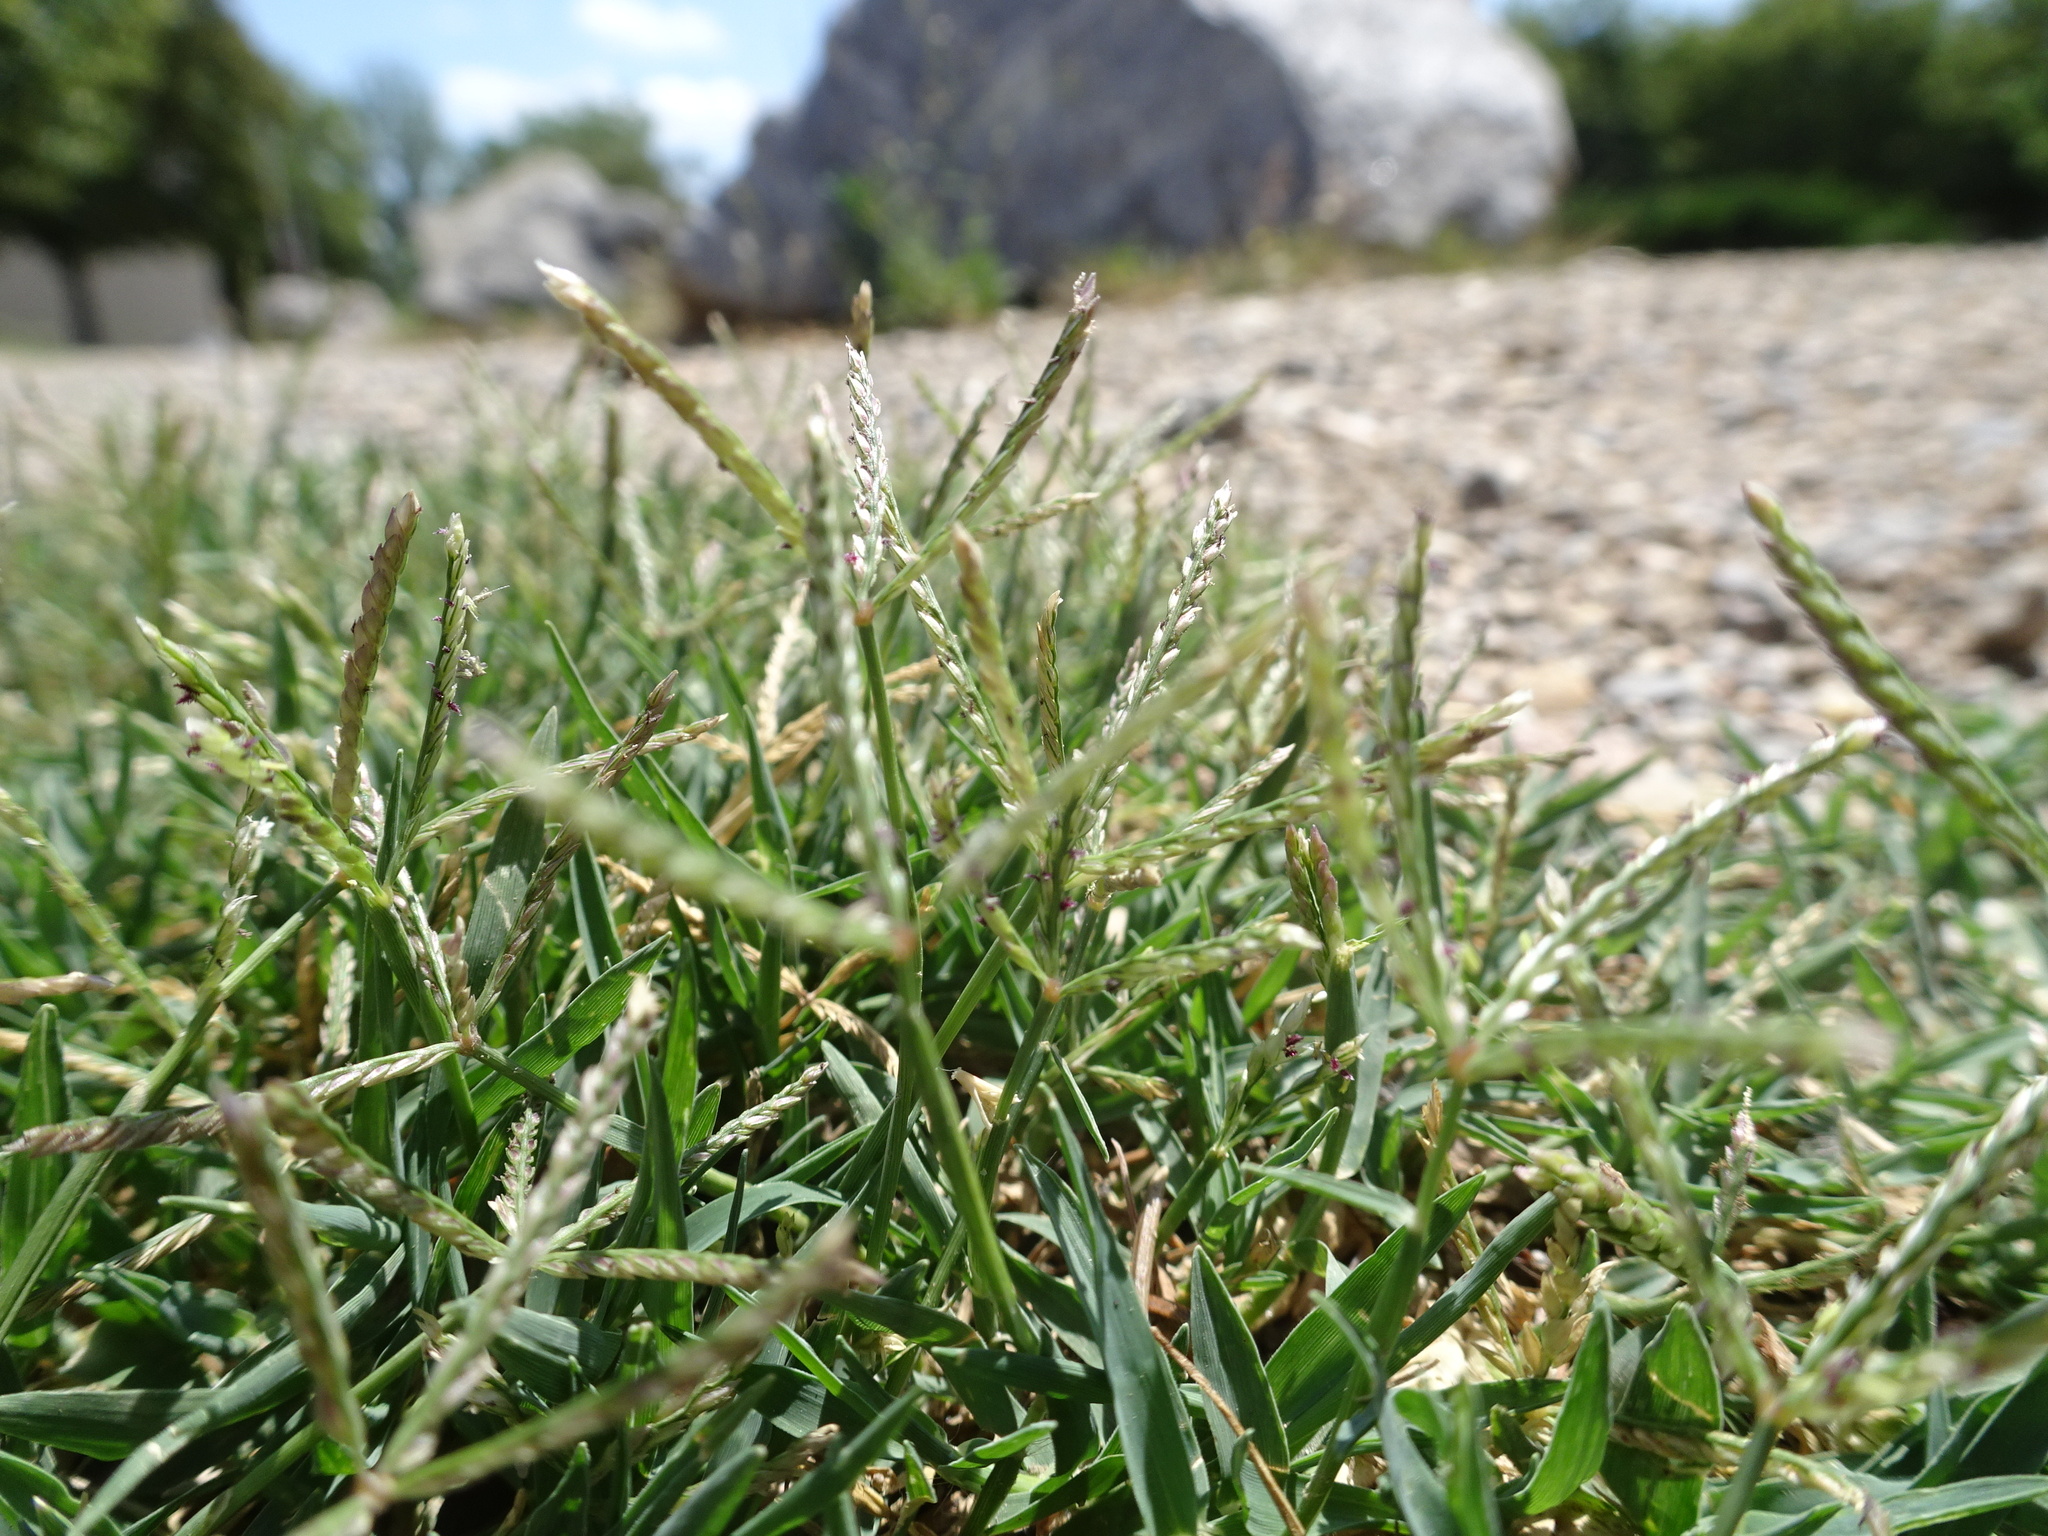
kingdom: Plantae
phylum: Tracheophyta
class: Liliopsida
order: Poales
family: Poaceae
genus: Cynodon
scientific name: Cynodon dactylon
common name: Bermuda grass
